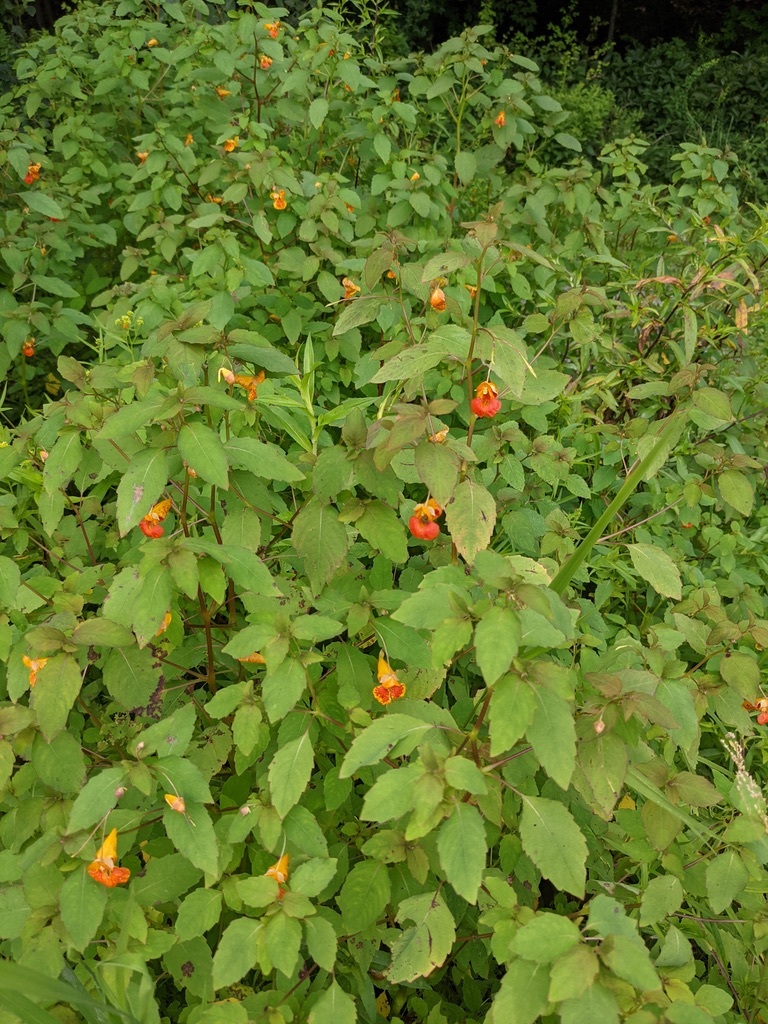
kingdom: Plantae
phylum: Tracheophyta
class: Magnoliopsida
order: Ericales
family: Balsaminaceae
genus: Impatiens
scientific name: Impatiens capensis
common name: Orange balsam
